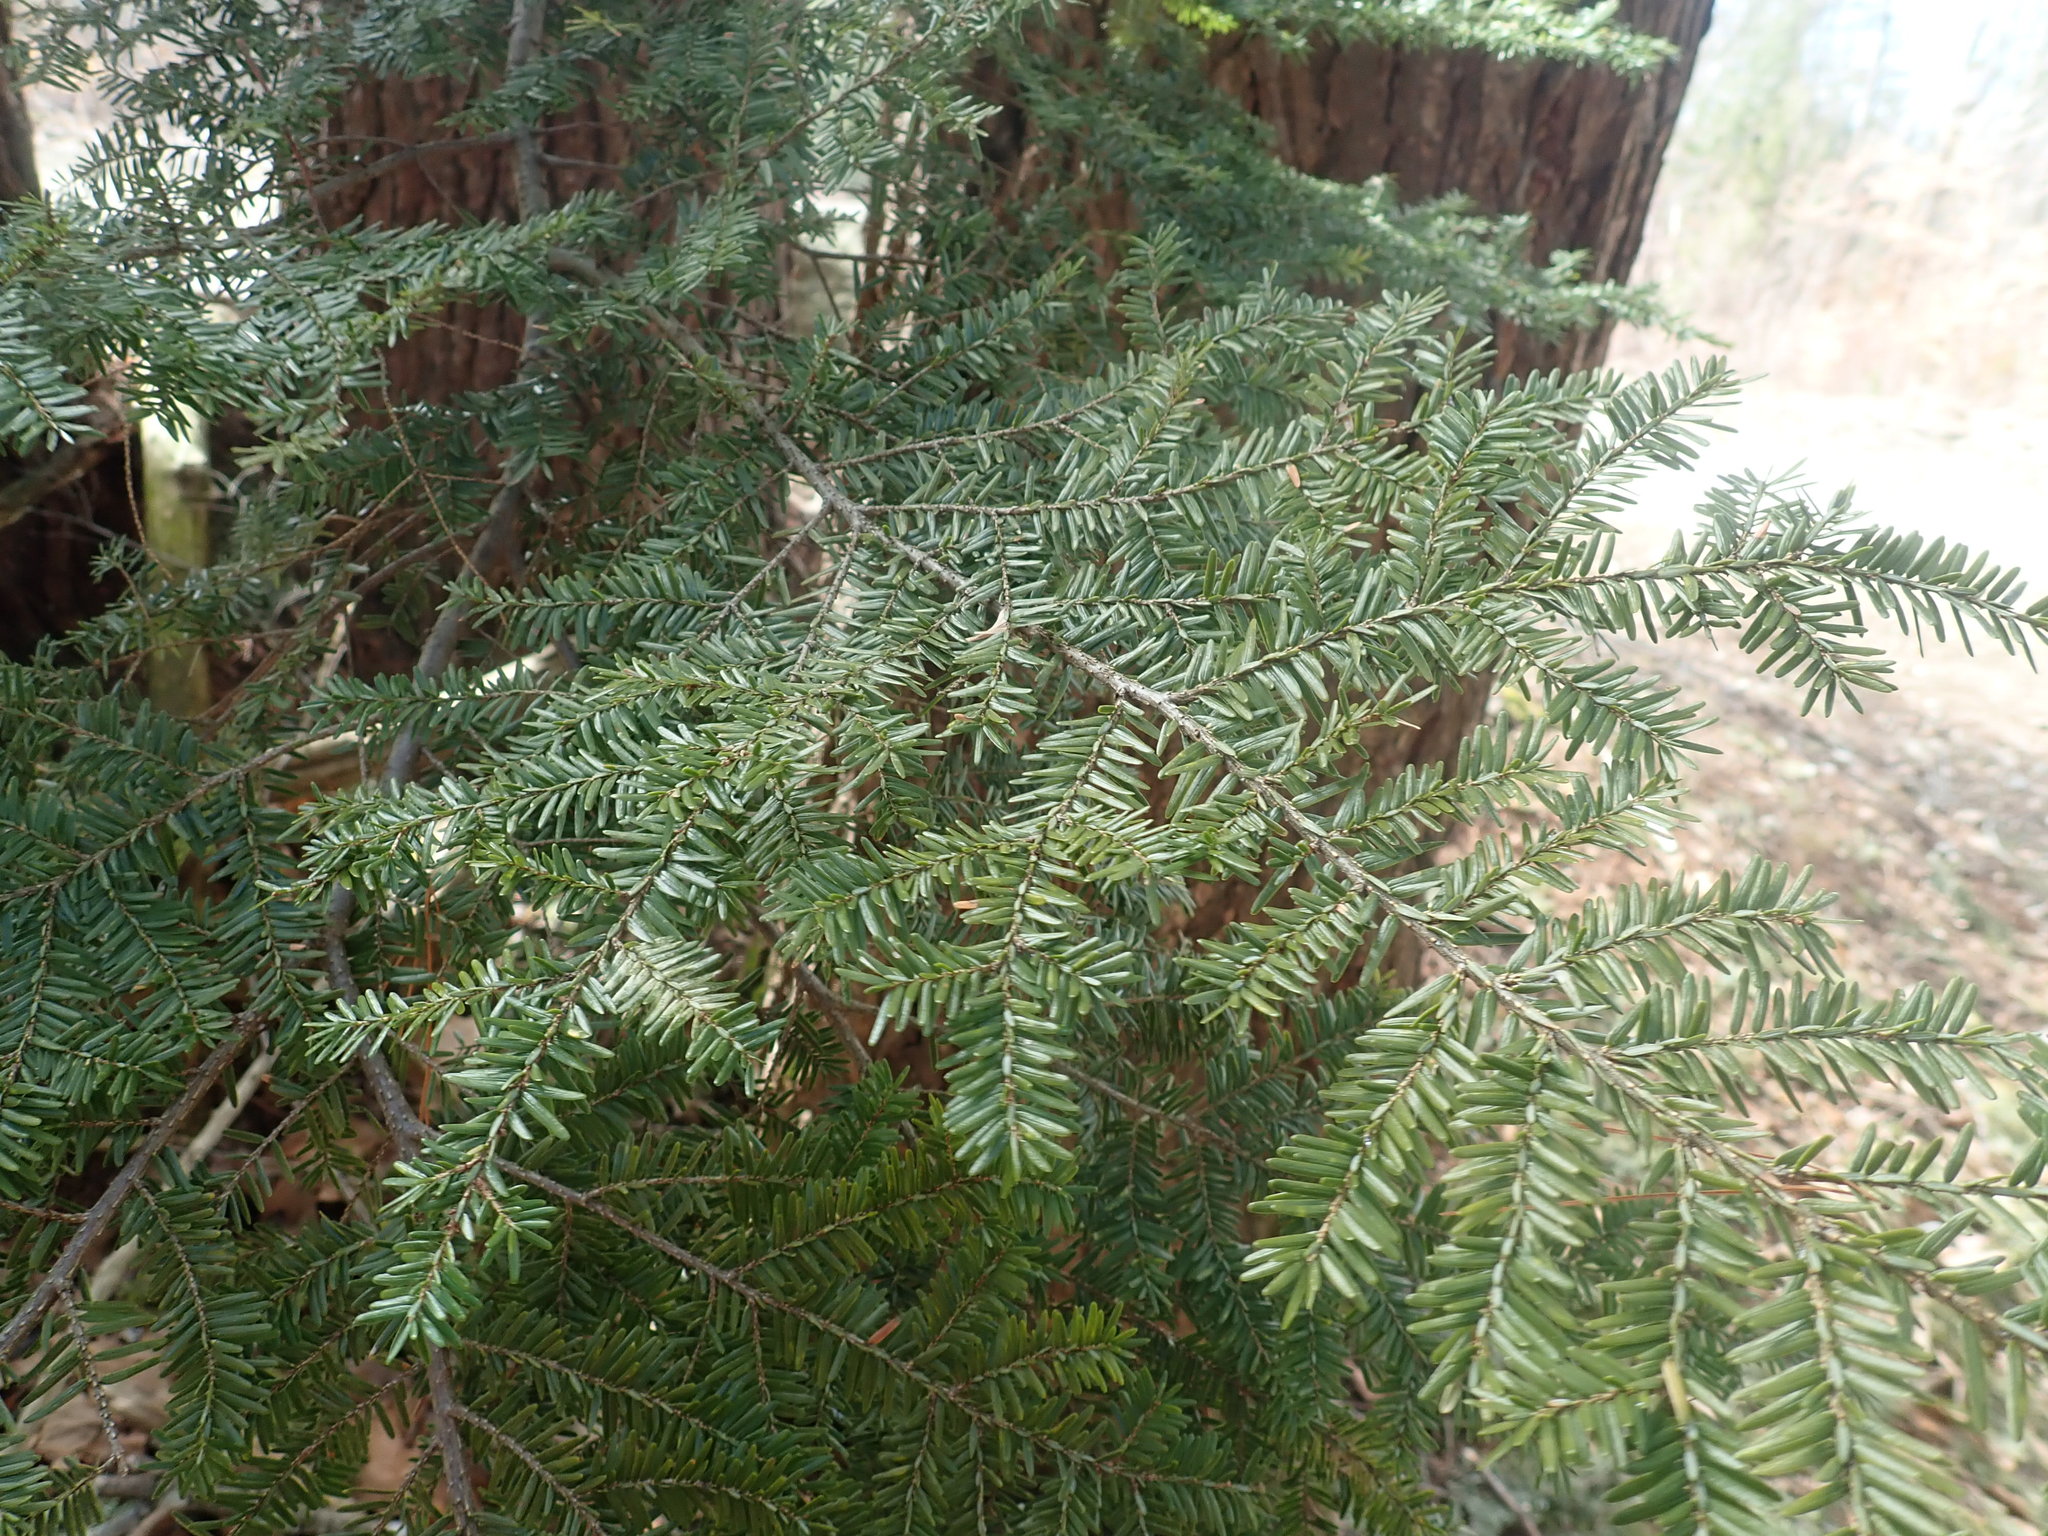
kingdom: Plantae
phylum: Tracheophyta
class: Pinopsida
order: Pinales
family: Pinaceae
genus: Tsuga
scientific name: Tsuga canadensis
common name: Eastern hemlock
